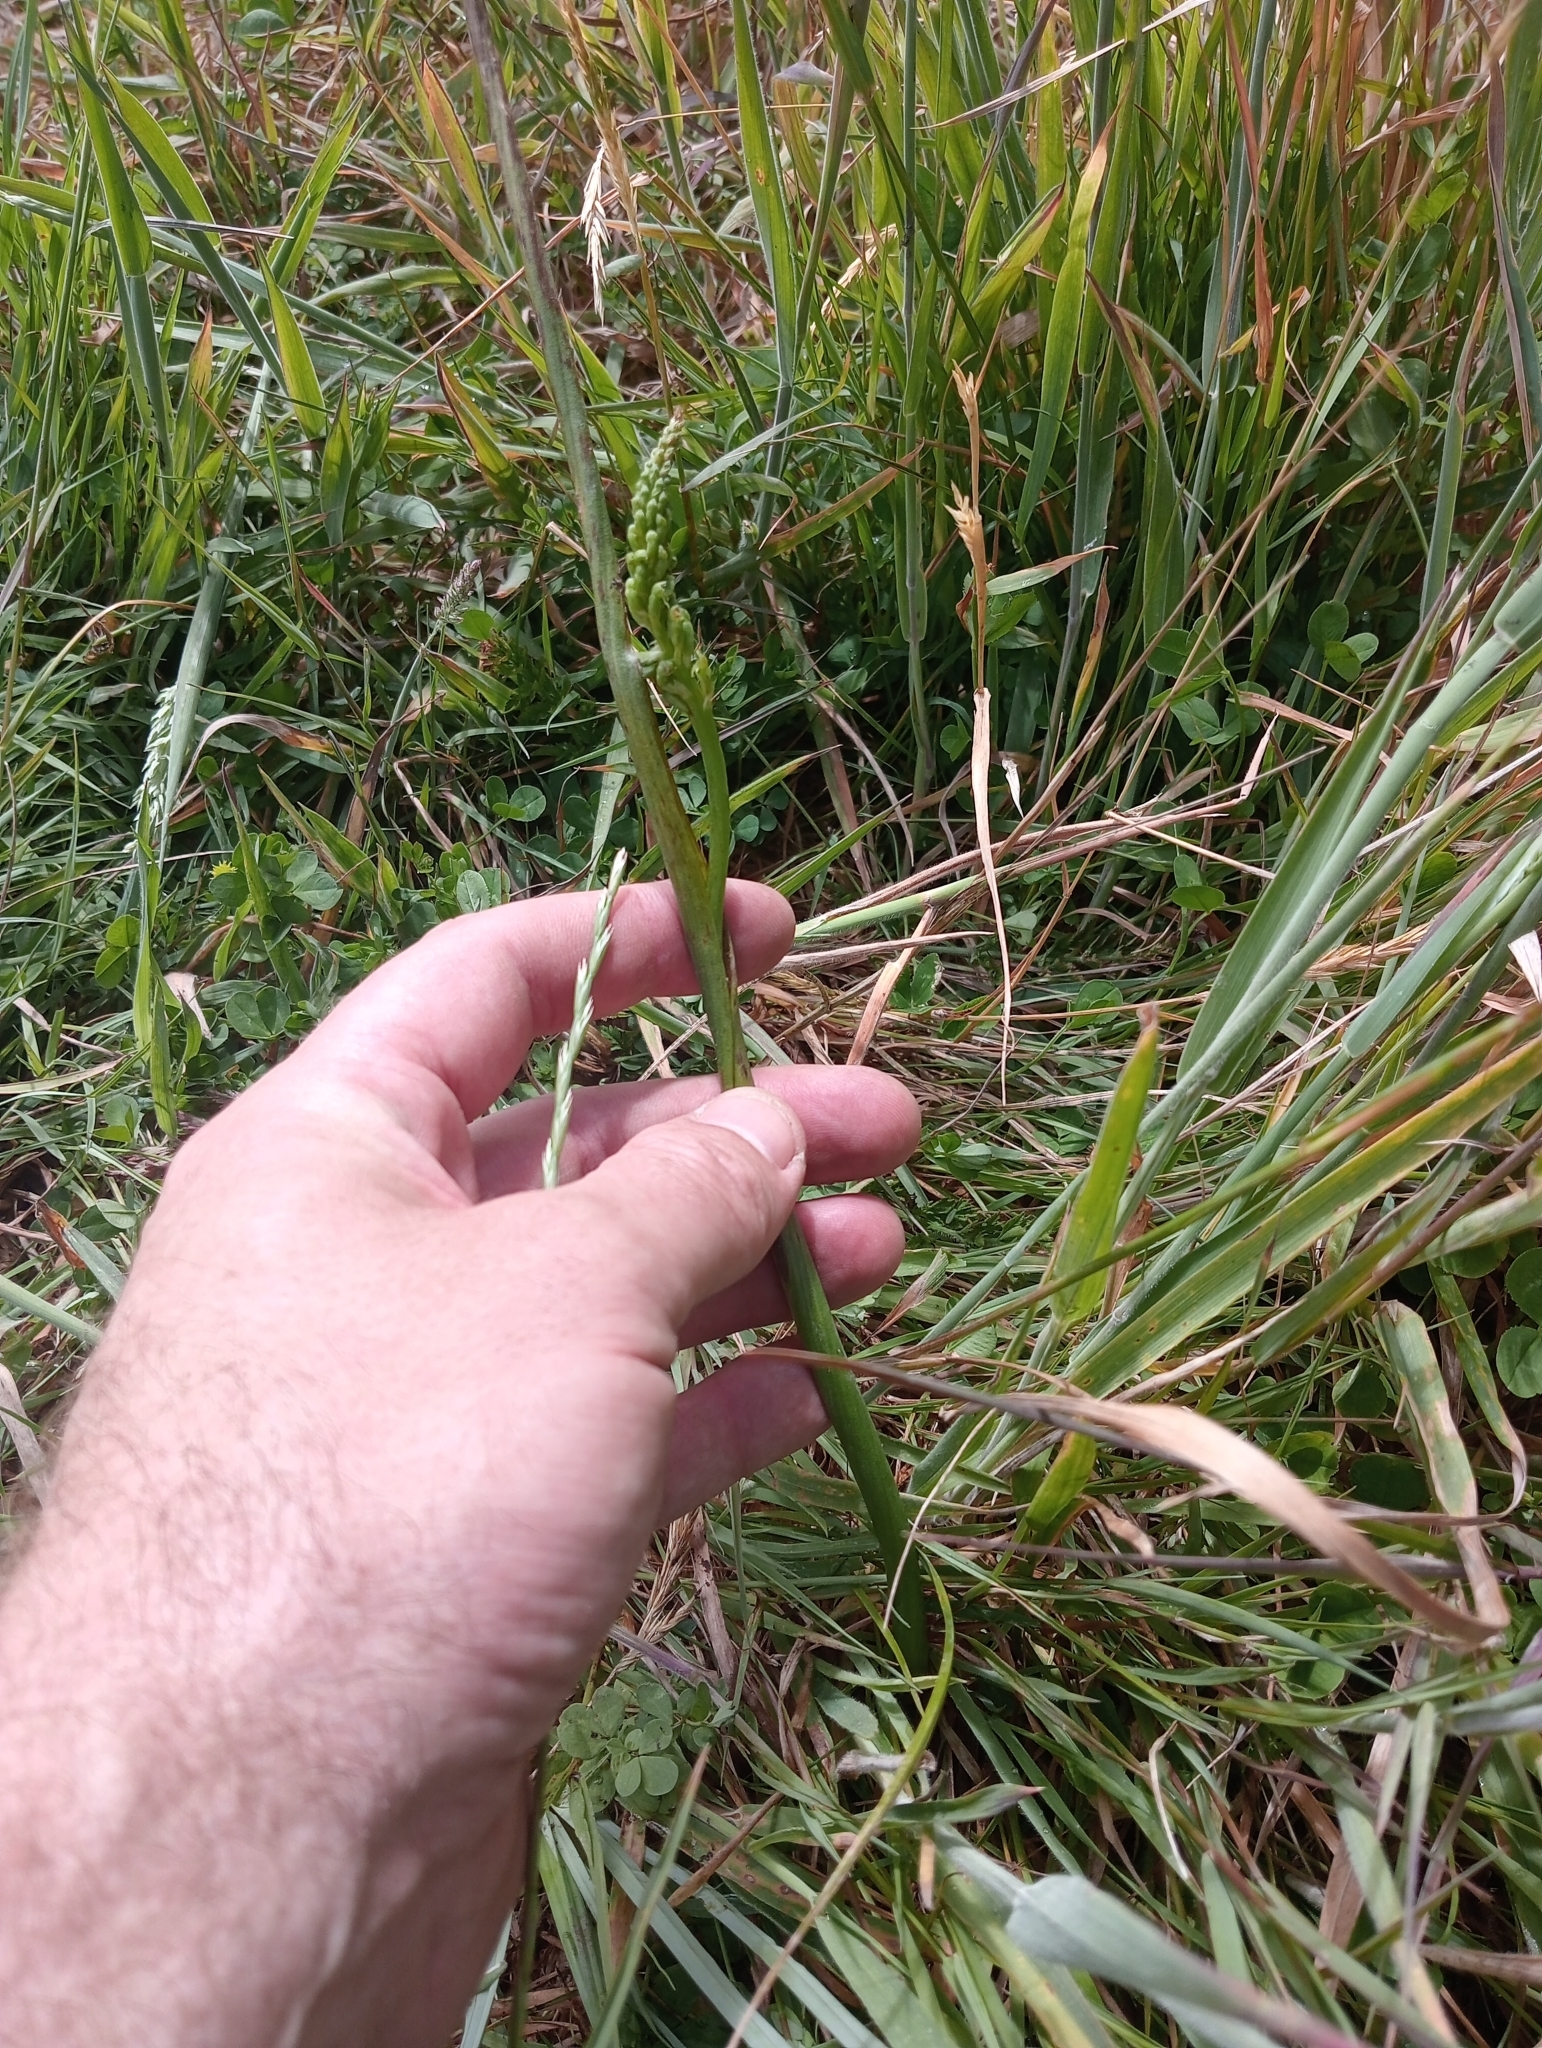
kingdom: Plantae
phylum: Tracheophyta
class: Liliopsida
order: Asparagales
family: Orchidaceae
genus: Microtis
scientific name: Microtis unifolia
